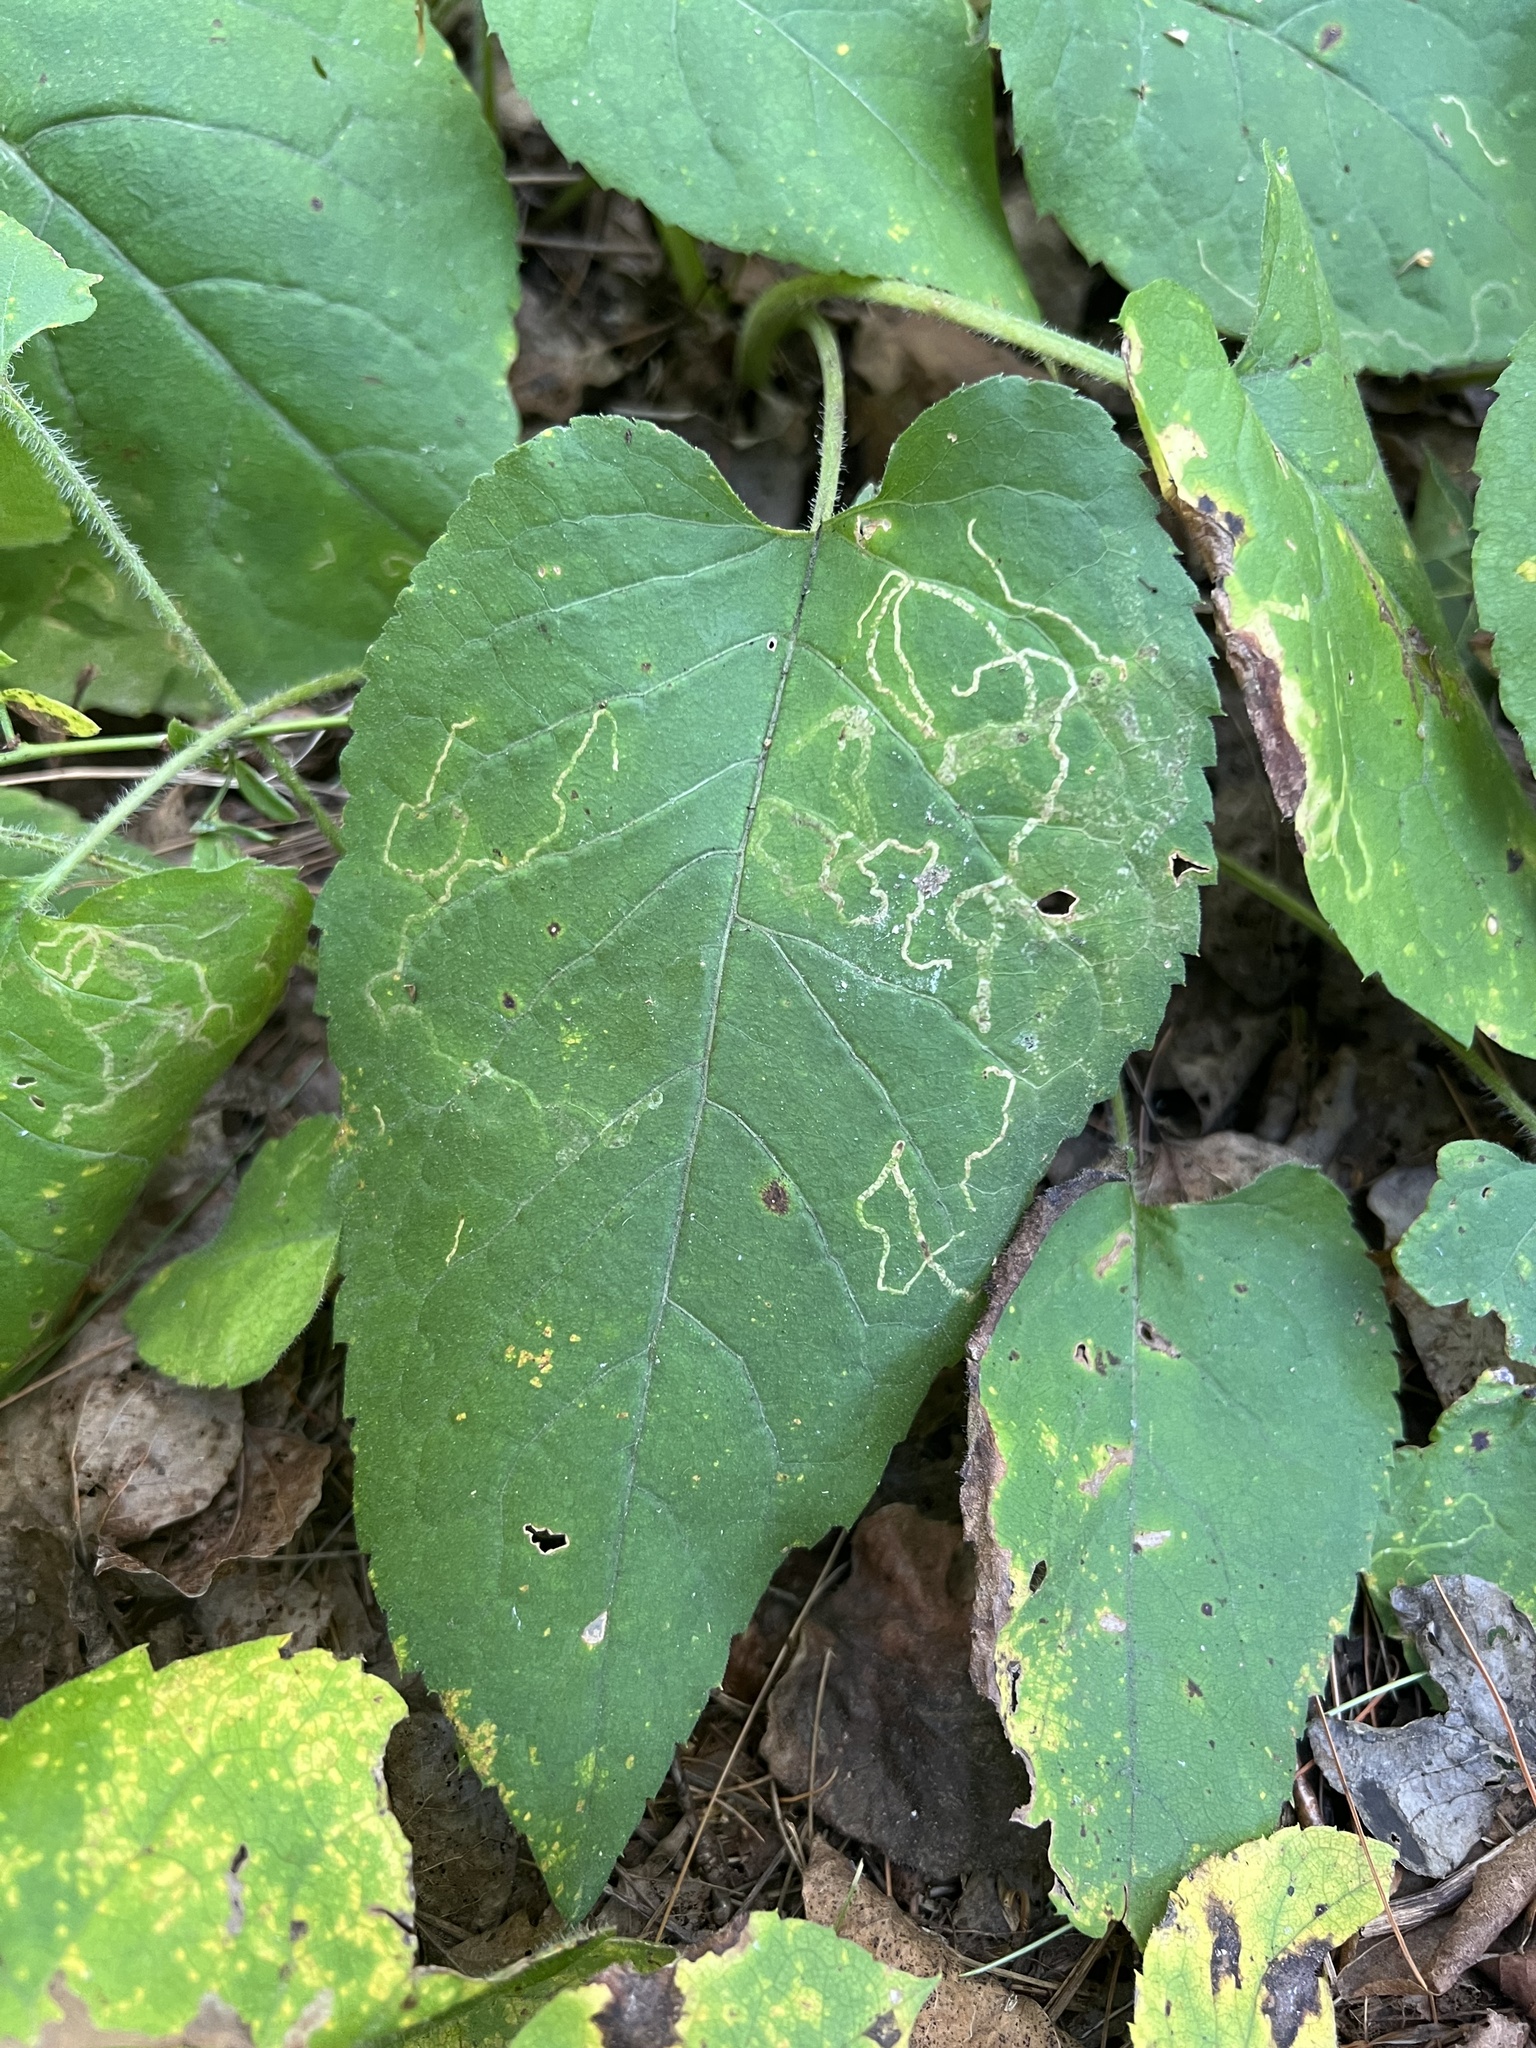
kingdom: Plantae
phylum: Tracheophyta
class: Magnoliopsida
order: Asterales
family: Asteraceae
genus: Eurybia
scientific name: Eurybia macrophylla
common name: Big-leaved aster
